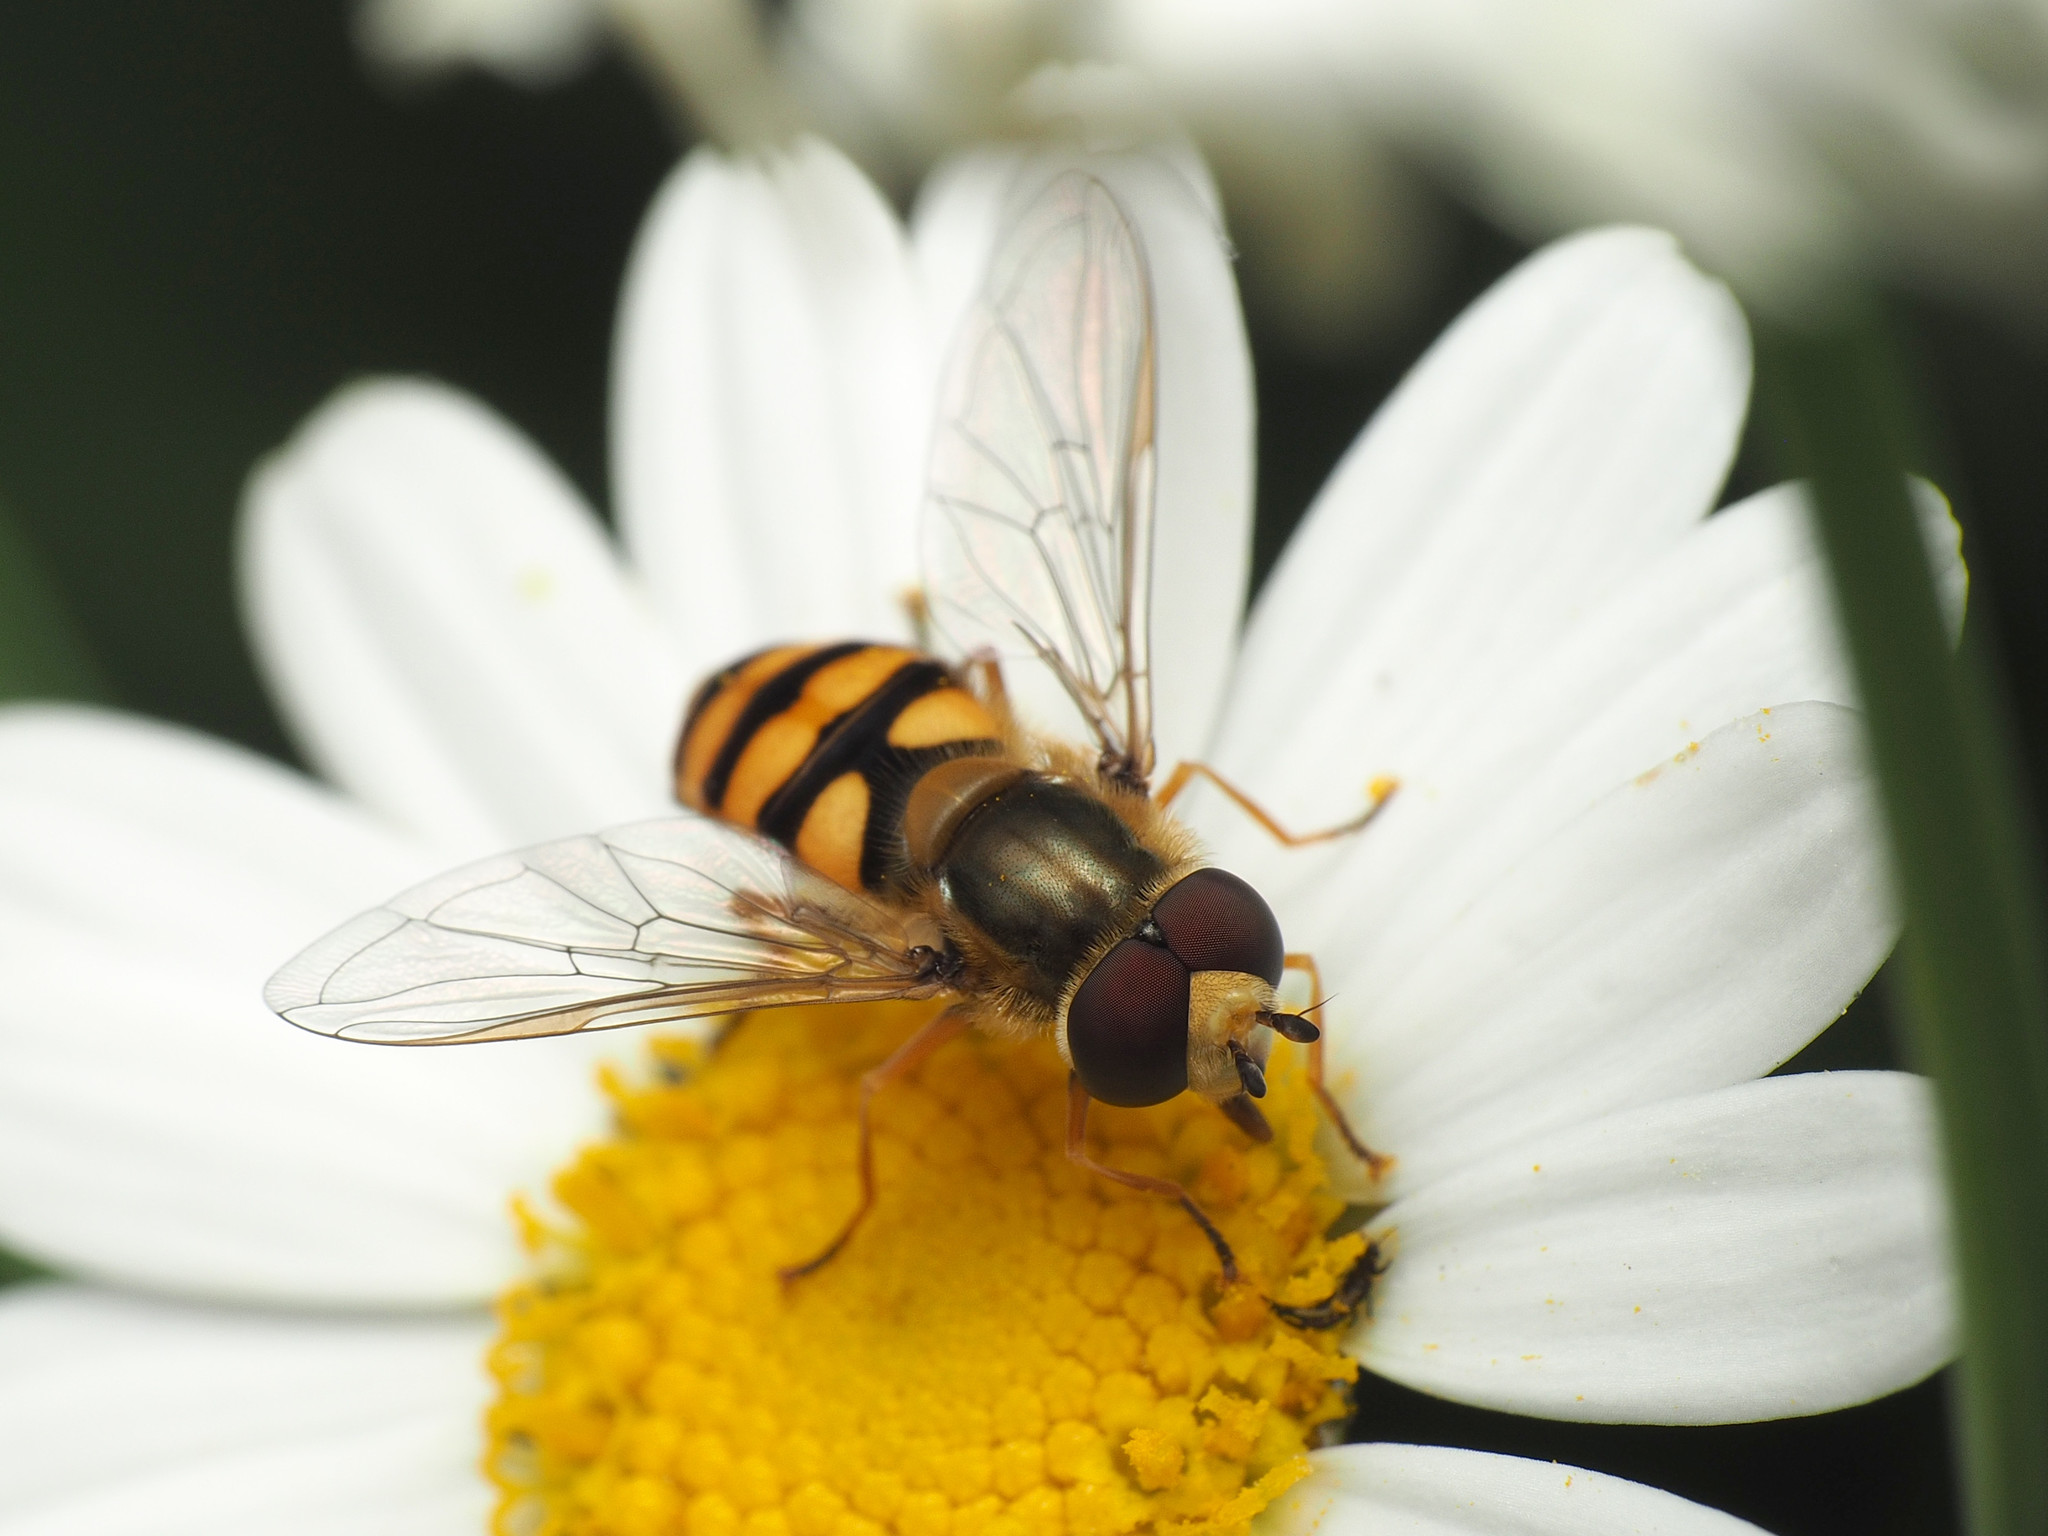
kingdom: Animalia
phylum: Arthropoda
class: Insecta
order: Diptera
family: Syrphidae
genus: Eupeodes
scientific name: Eupeodes corollae
